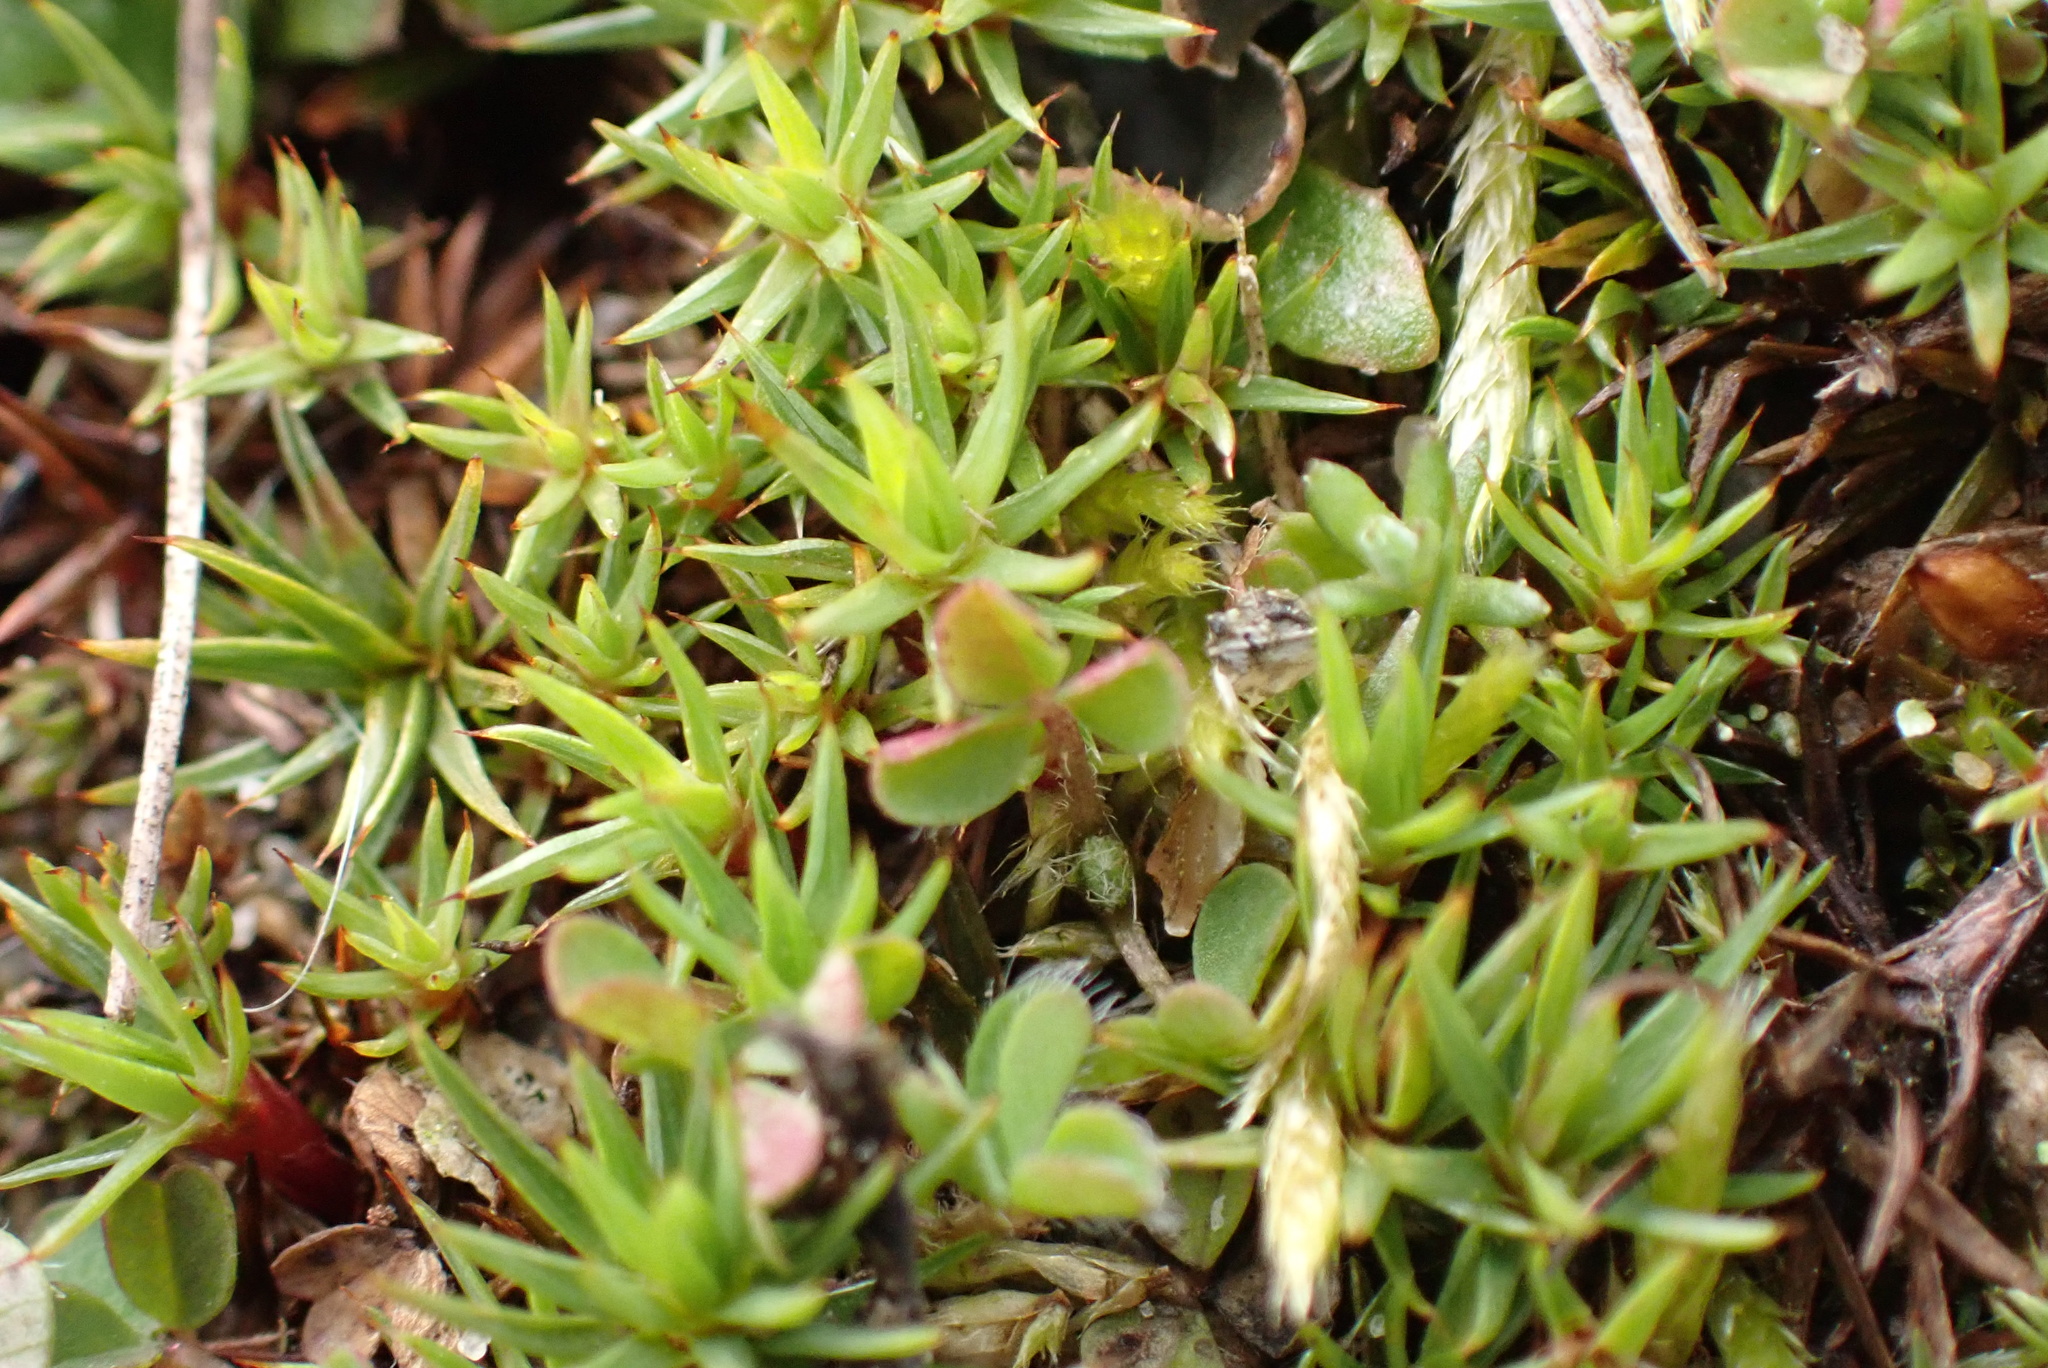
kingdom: Plantae
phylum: Bryophyta
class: Polytrichopsida
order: Polytrichales
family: Polytrichaceae
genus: Polytrichum
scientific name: Polytrichum juniperinum
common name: Juniper haircap moss
